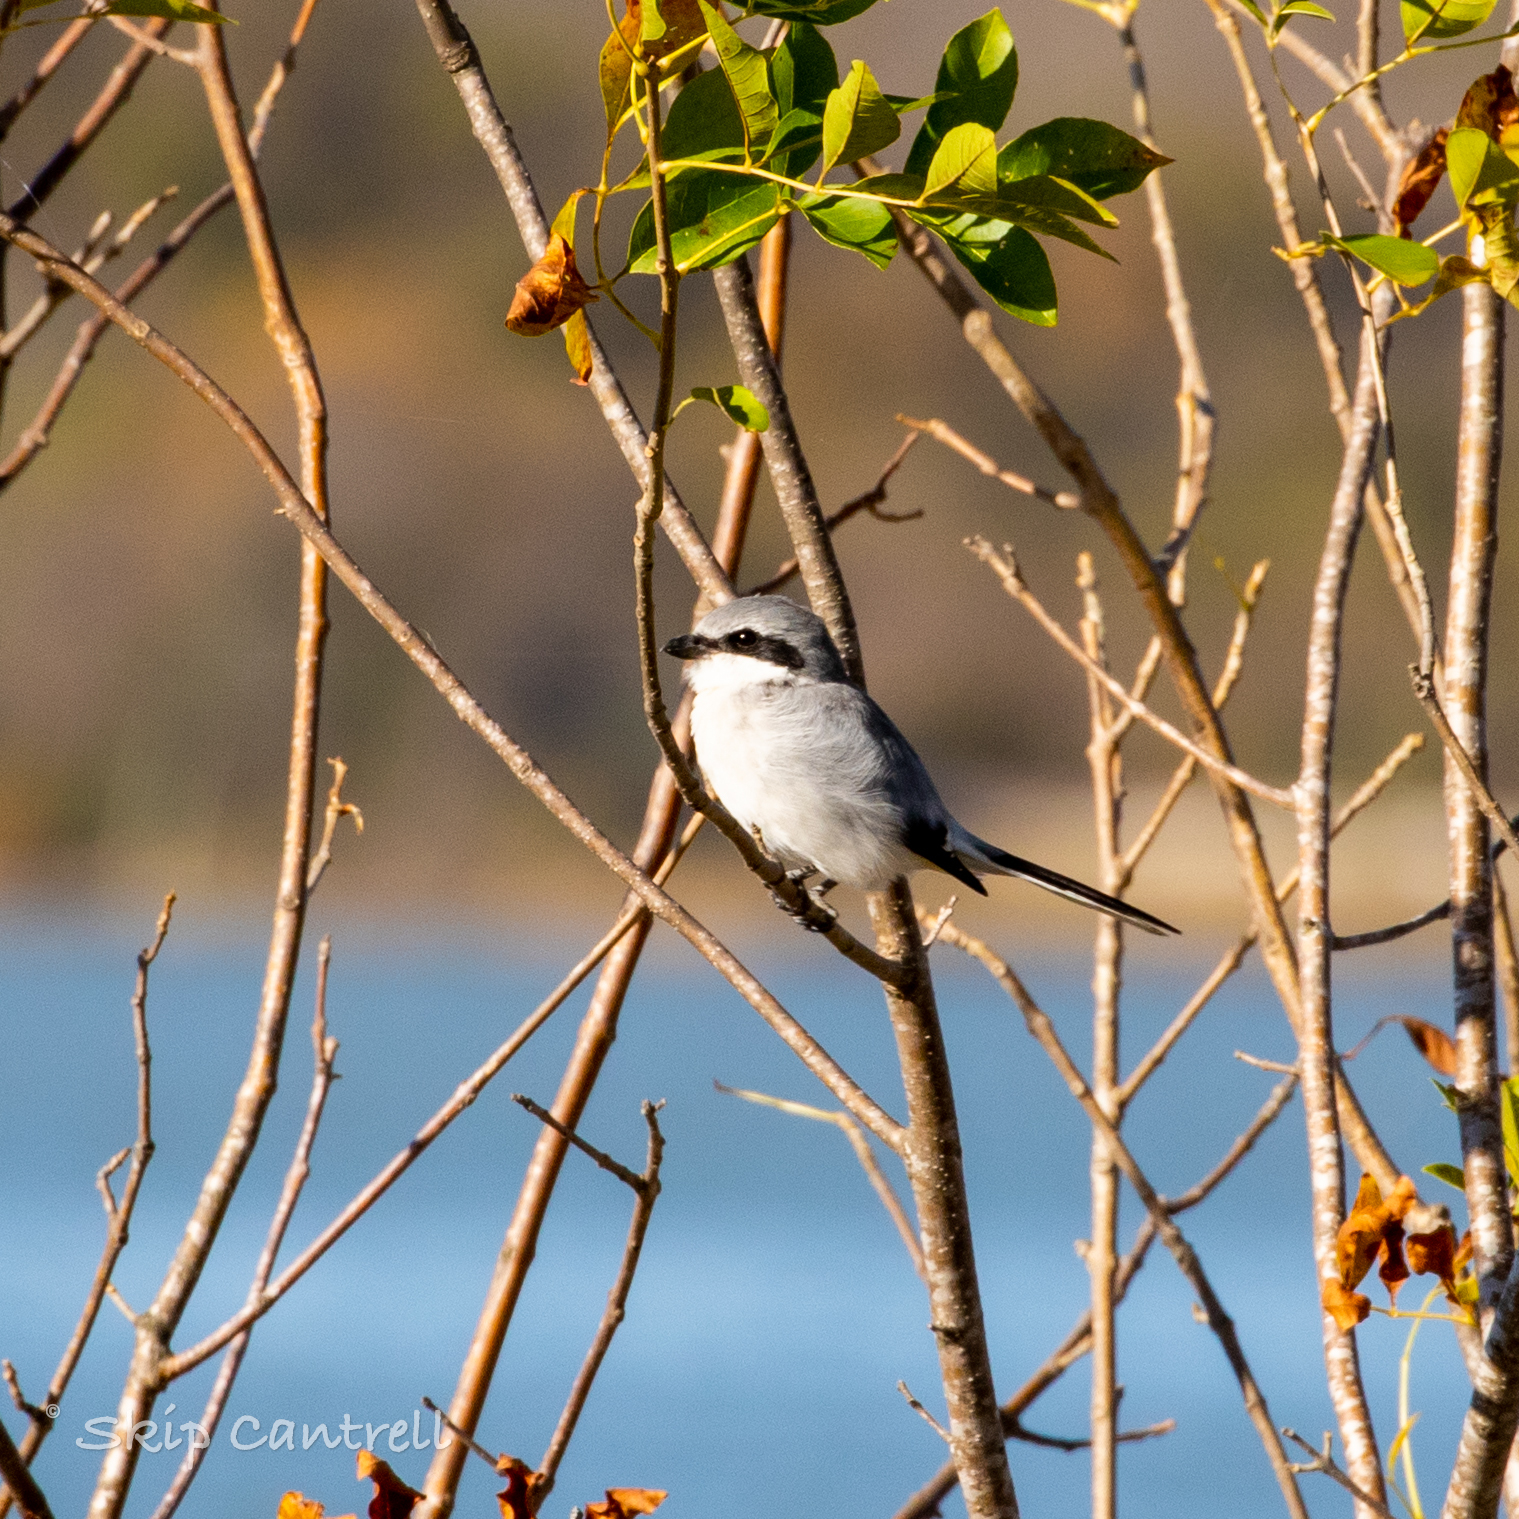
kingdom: Animalia
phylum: Chordata
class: Aves
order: Passeriformes
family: Laniidae
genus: Lanius
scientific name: Lanius ludovicianus
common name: Loggerhead shrike
